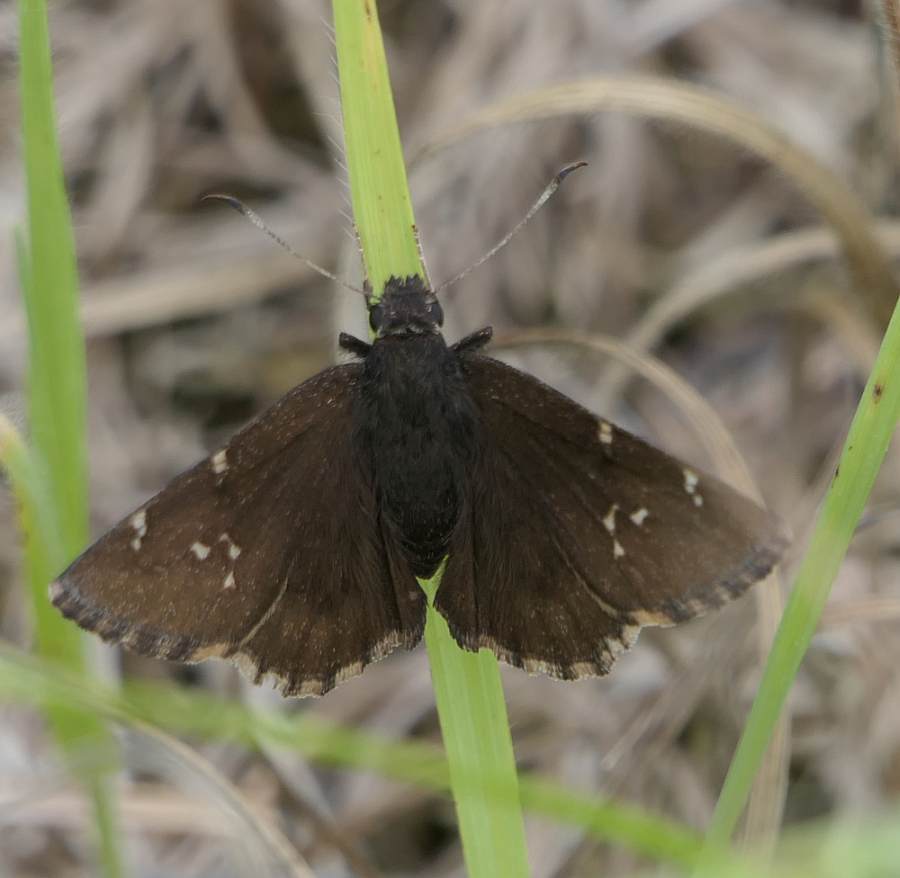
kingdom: Animalia
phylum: Arthropoda
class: Insecta
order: Lepidoptera
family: Hesperiidae
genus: Thorybes
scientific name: Thorybes pylades
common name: Northern cloudywing
